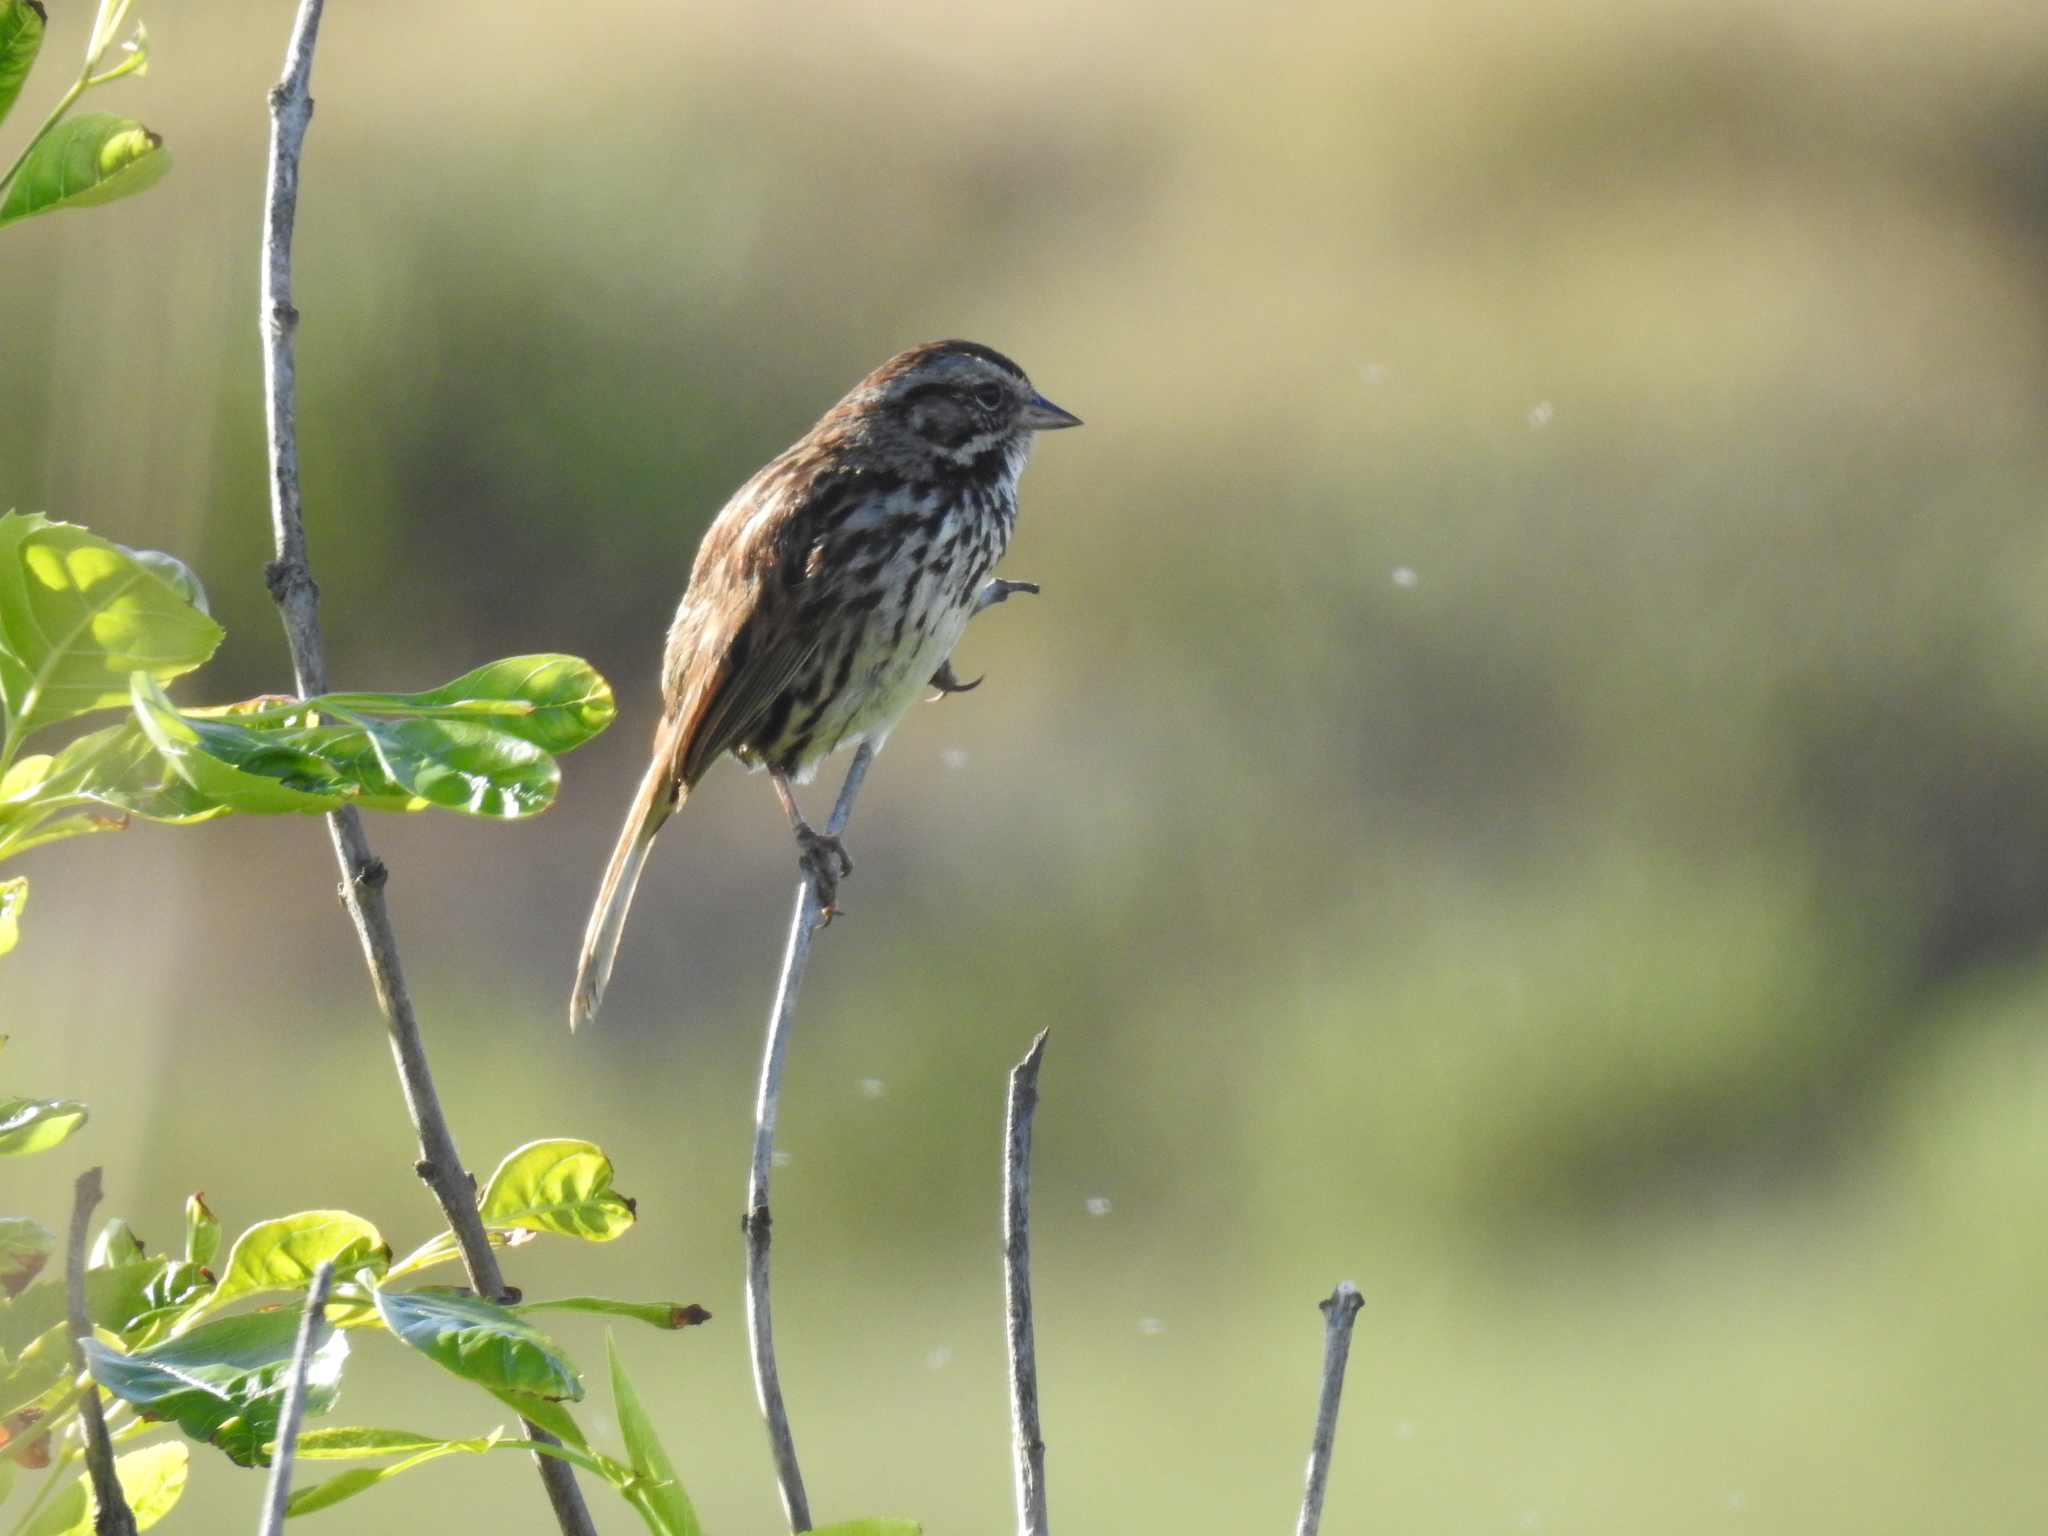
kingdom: Animalia
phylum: Chordata
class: Aves
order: Passeriformes
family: Passerellidae
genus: Melospiza
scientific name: Melospiza melodia
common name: Song sparrow
